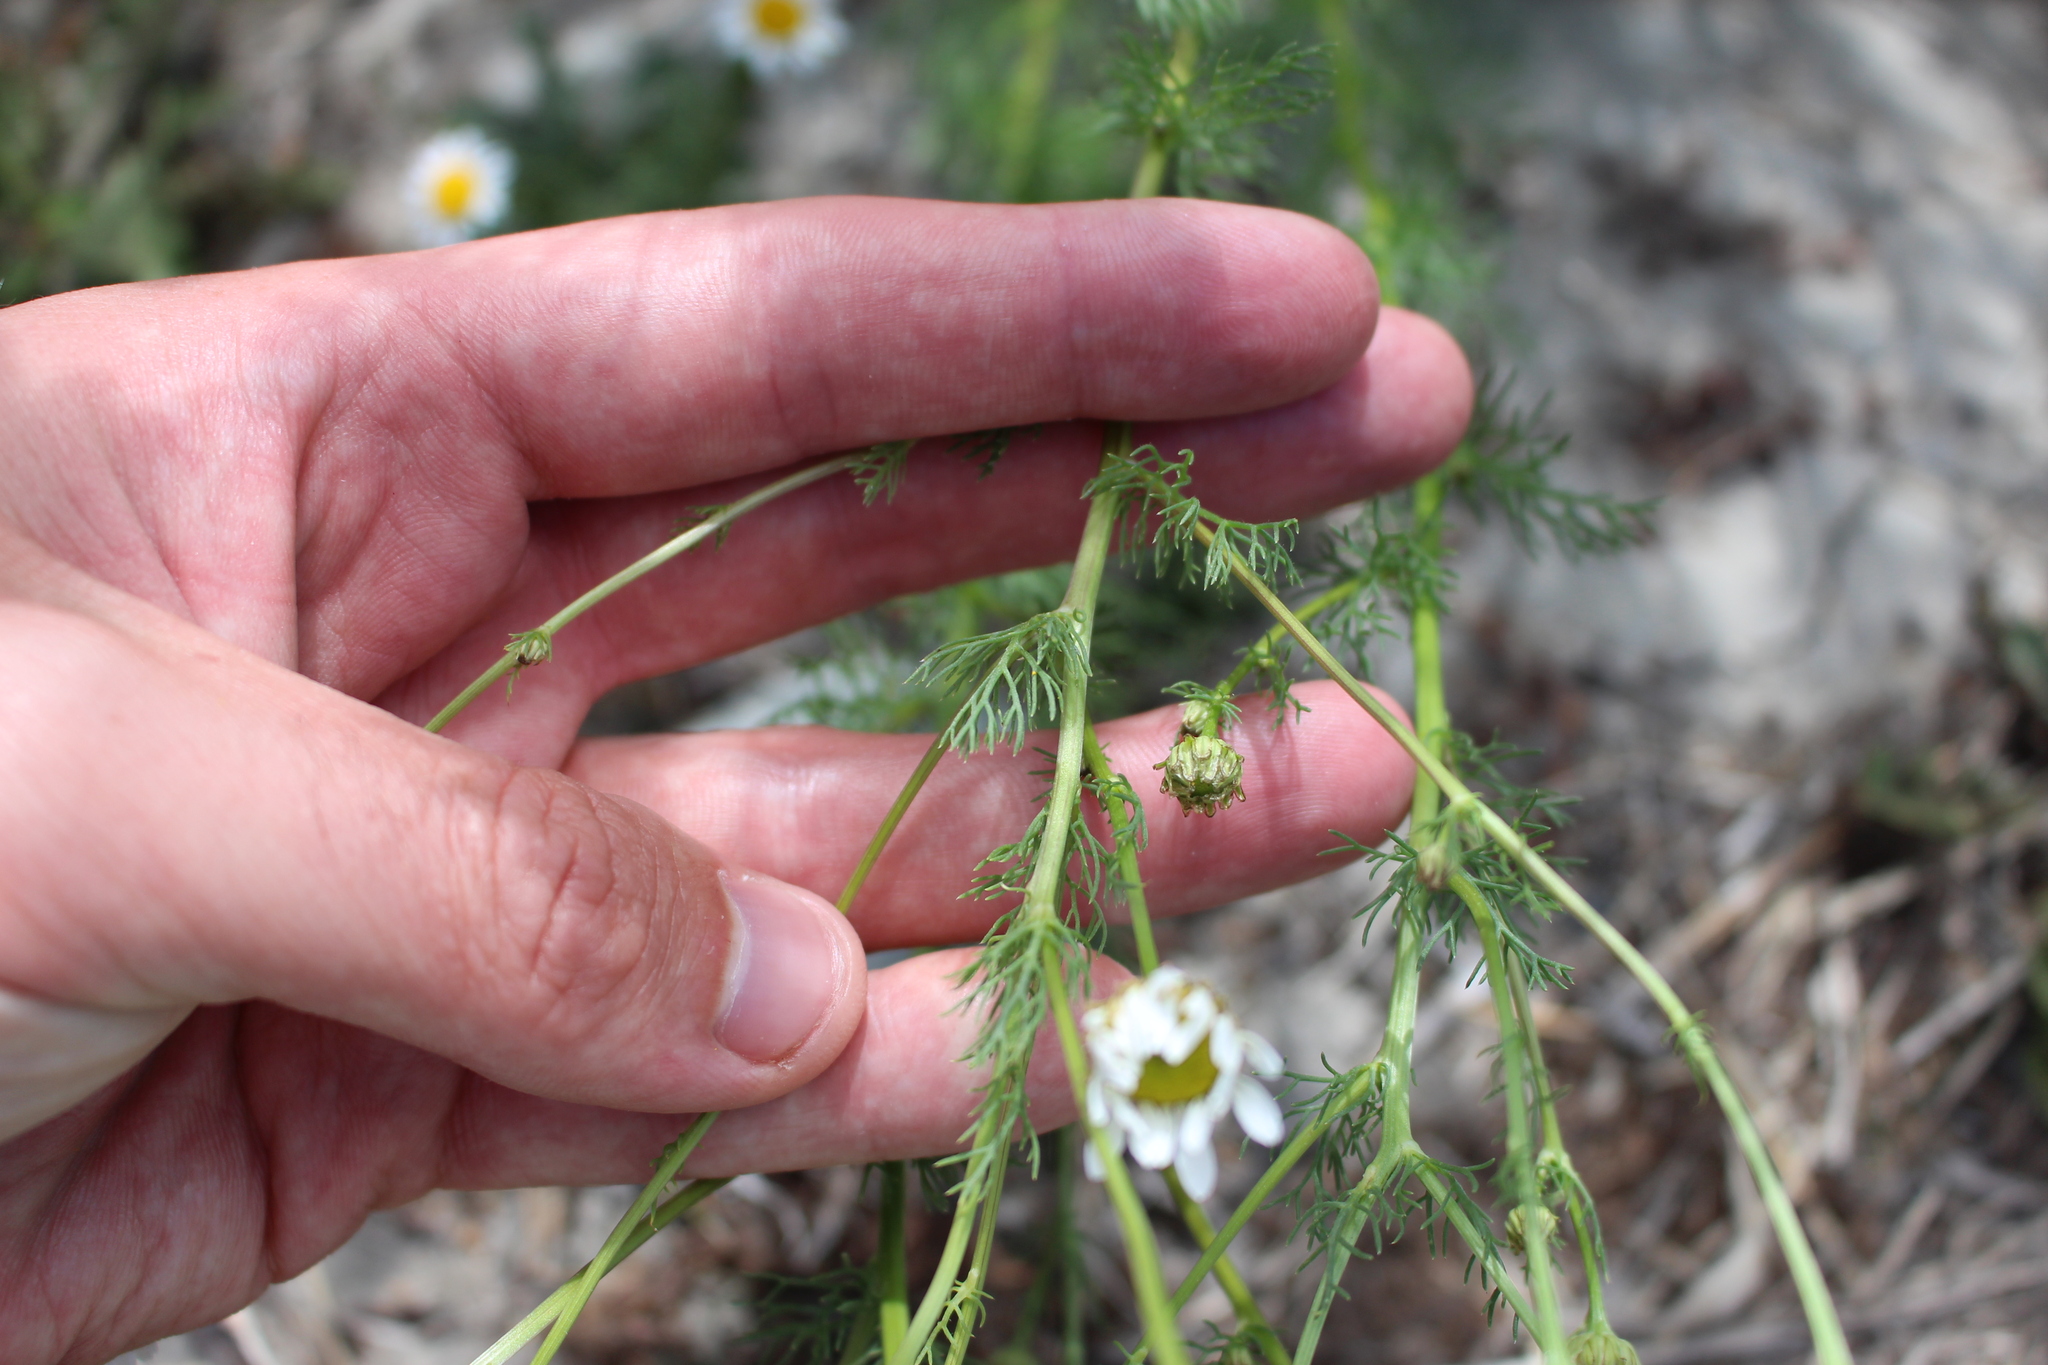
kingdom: Plantae
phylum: Tracheophyta
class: Magnoliopsida
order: Asterales
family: Asteraceae
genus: Tripleurospermum
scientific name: Tripleurospermum inodorum
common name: Scentless mayweed
